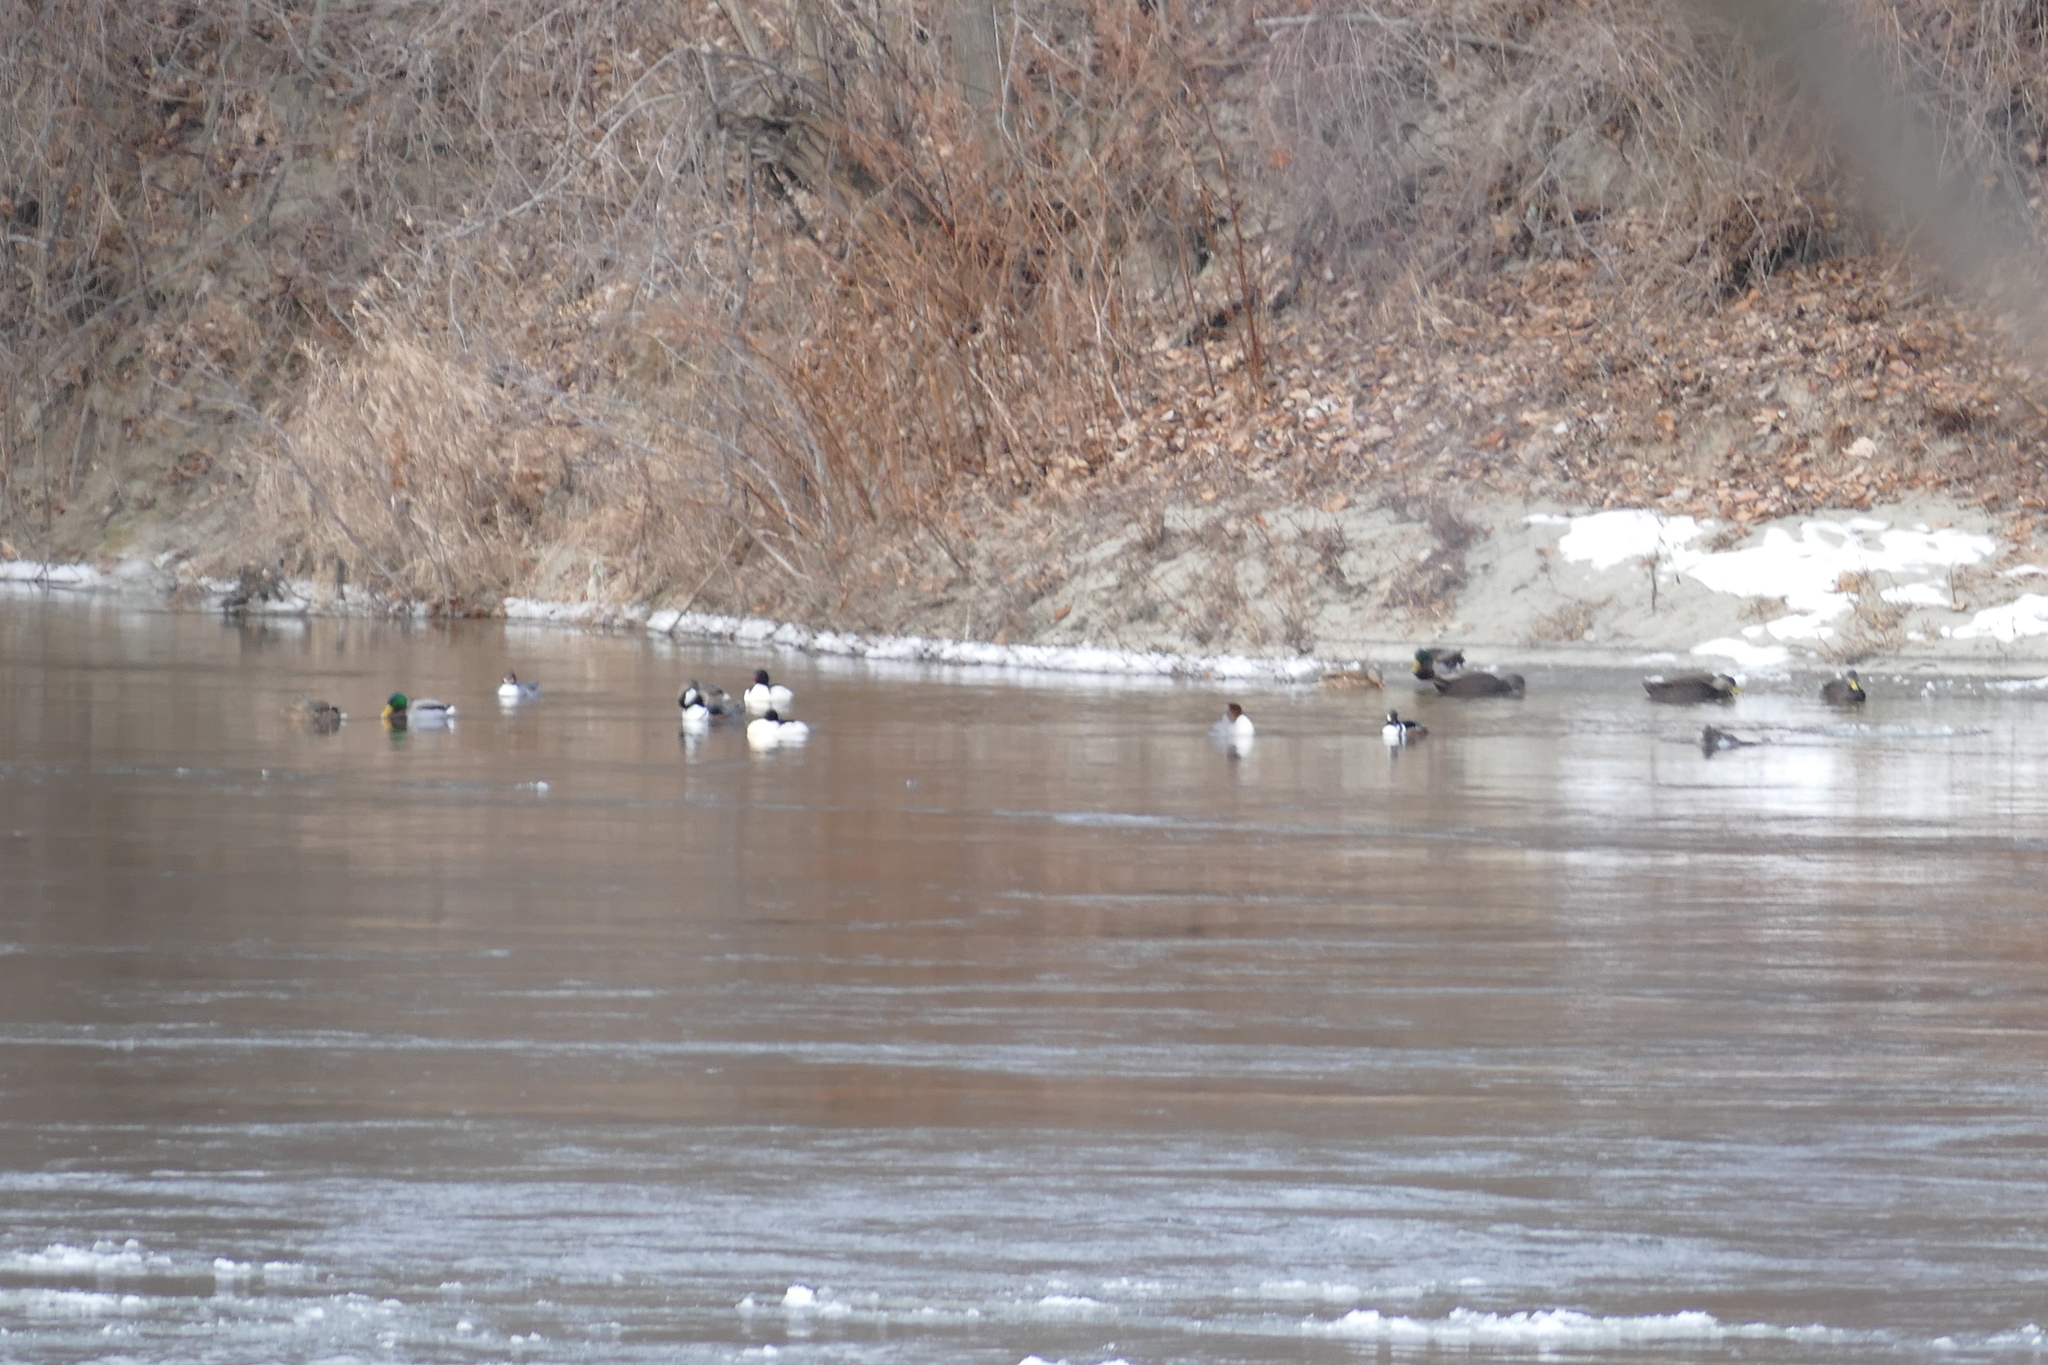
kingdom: Animalia
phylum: Chordata
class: Aves
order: Anseriformes
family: Anatidae
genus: Anas
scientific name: Anas rubripes
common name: American black duck
